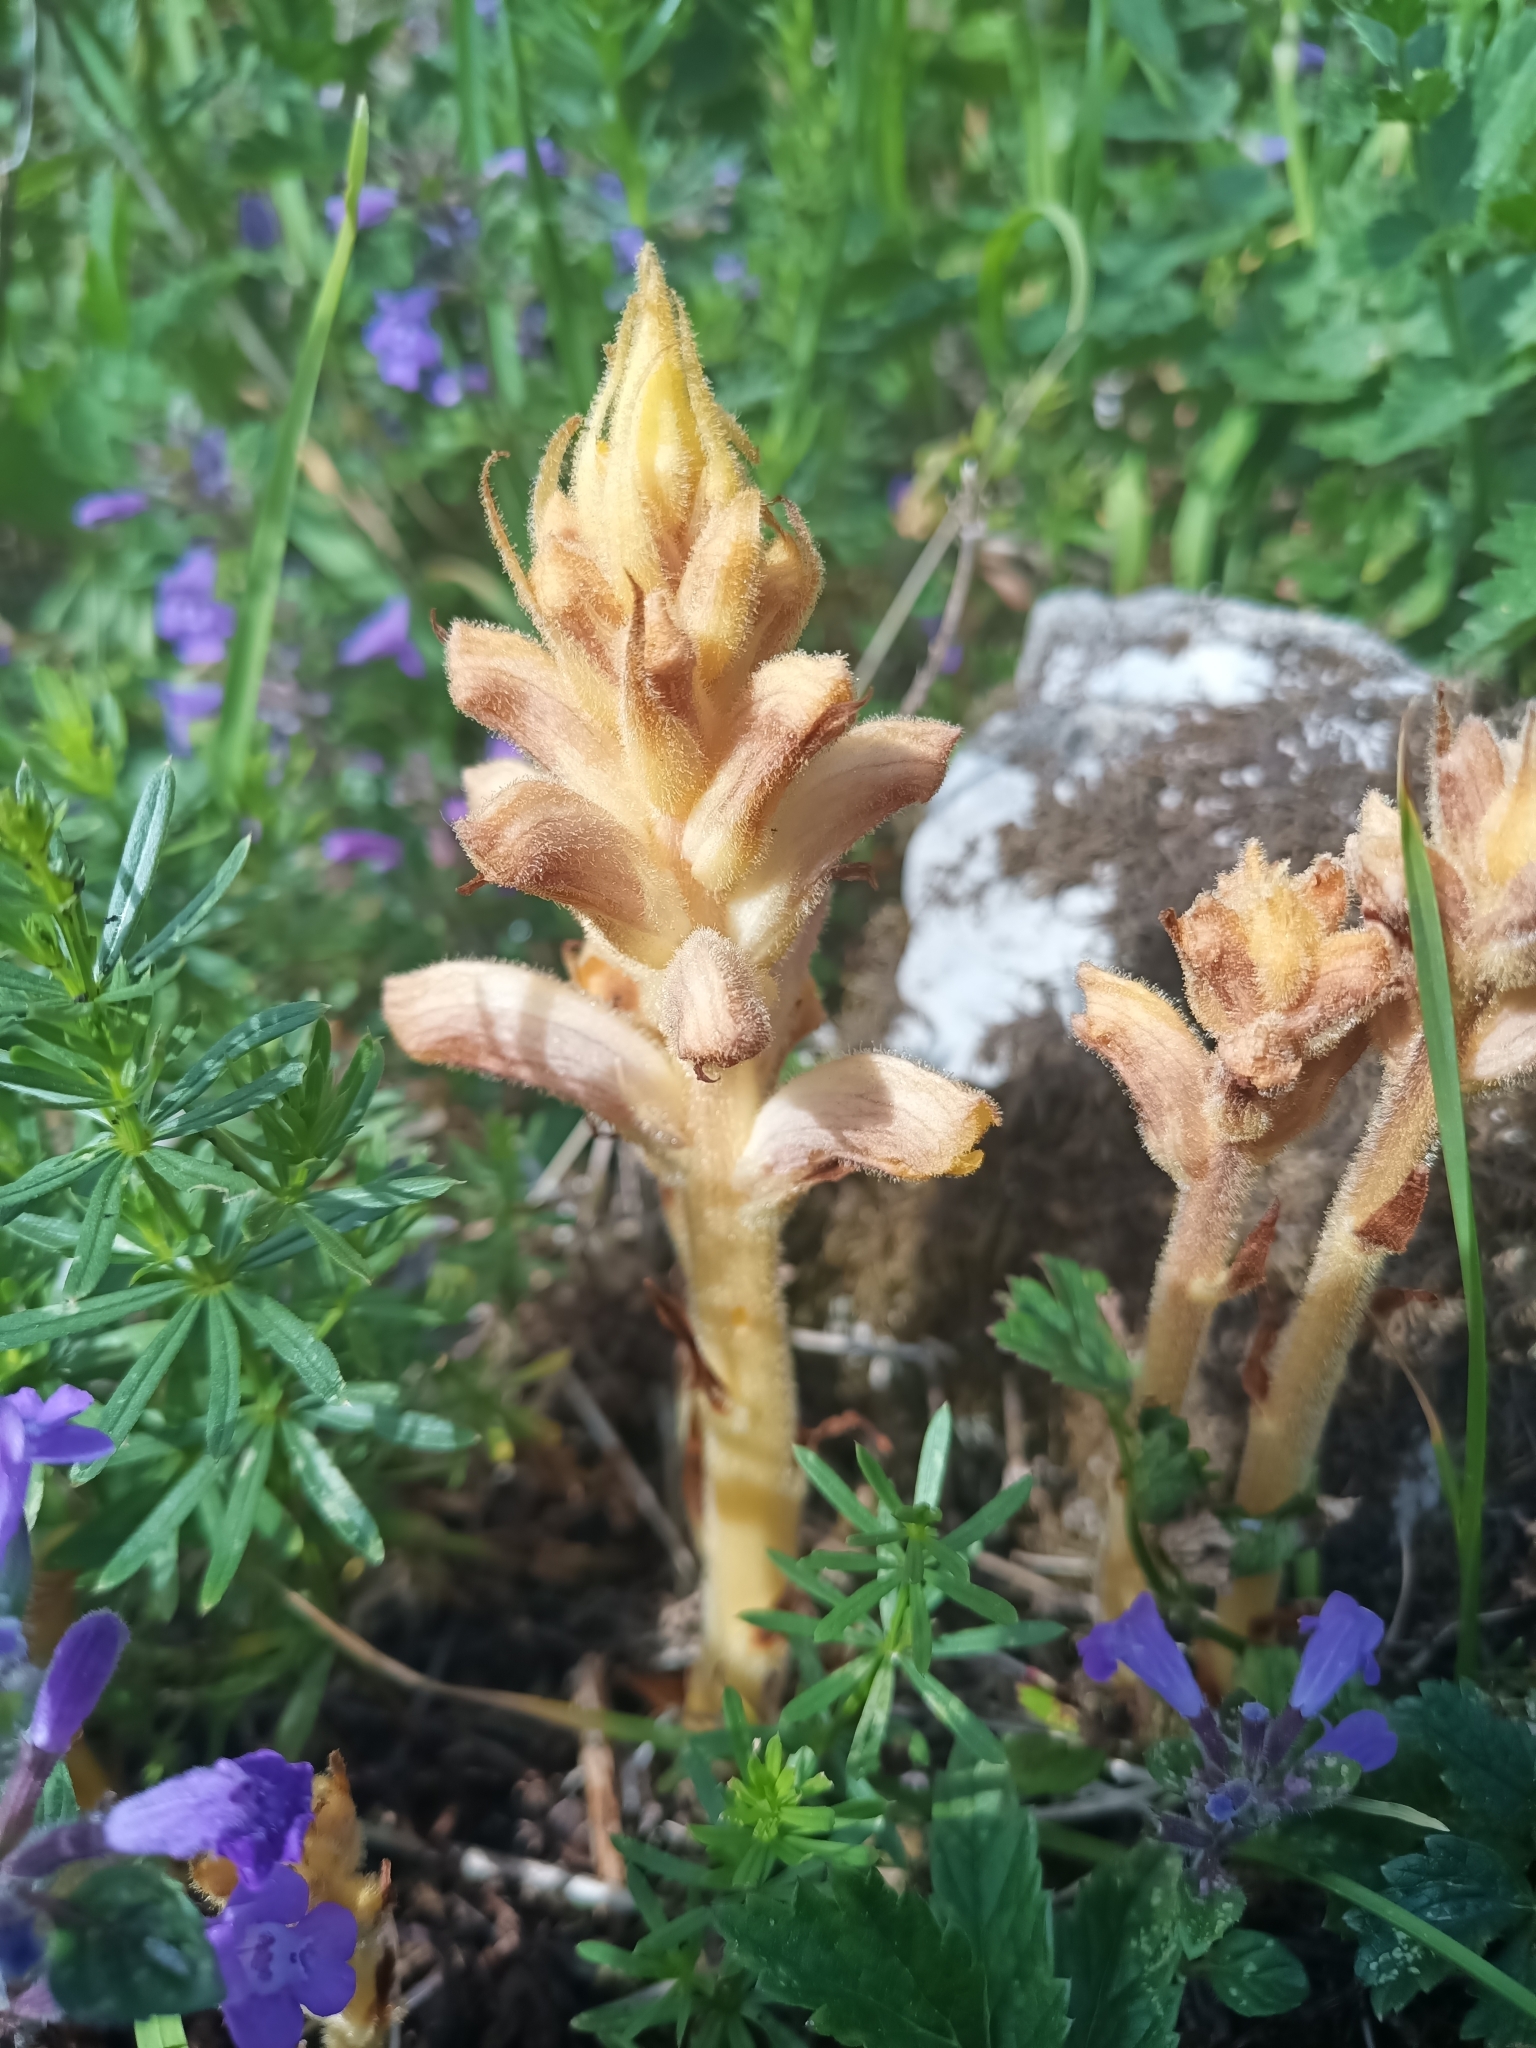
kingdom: Plantae
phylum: Tracheophyta
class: Magnoliopsida
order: Lamiales
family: Orobanchaceae
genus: Orobanche
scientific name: Orobanche caryophyllacea
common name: Bedstraw broomrape
